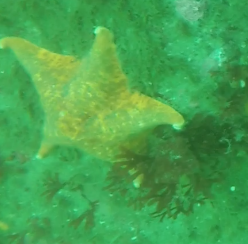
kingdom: Animalia
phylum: Echinodermata
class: Asteroidea
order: Valvatida
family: Asterinidae
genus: Patiria
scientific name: Patiria miniata
